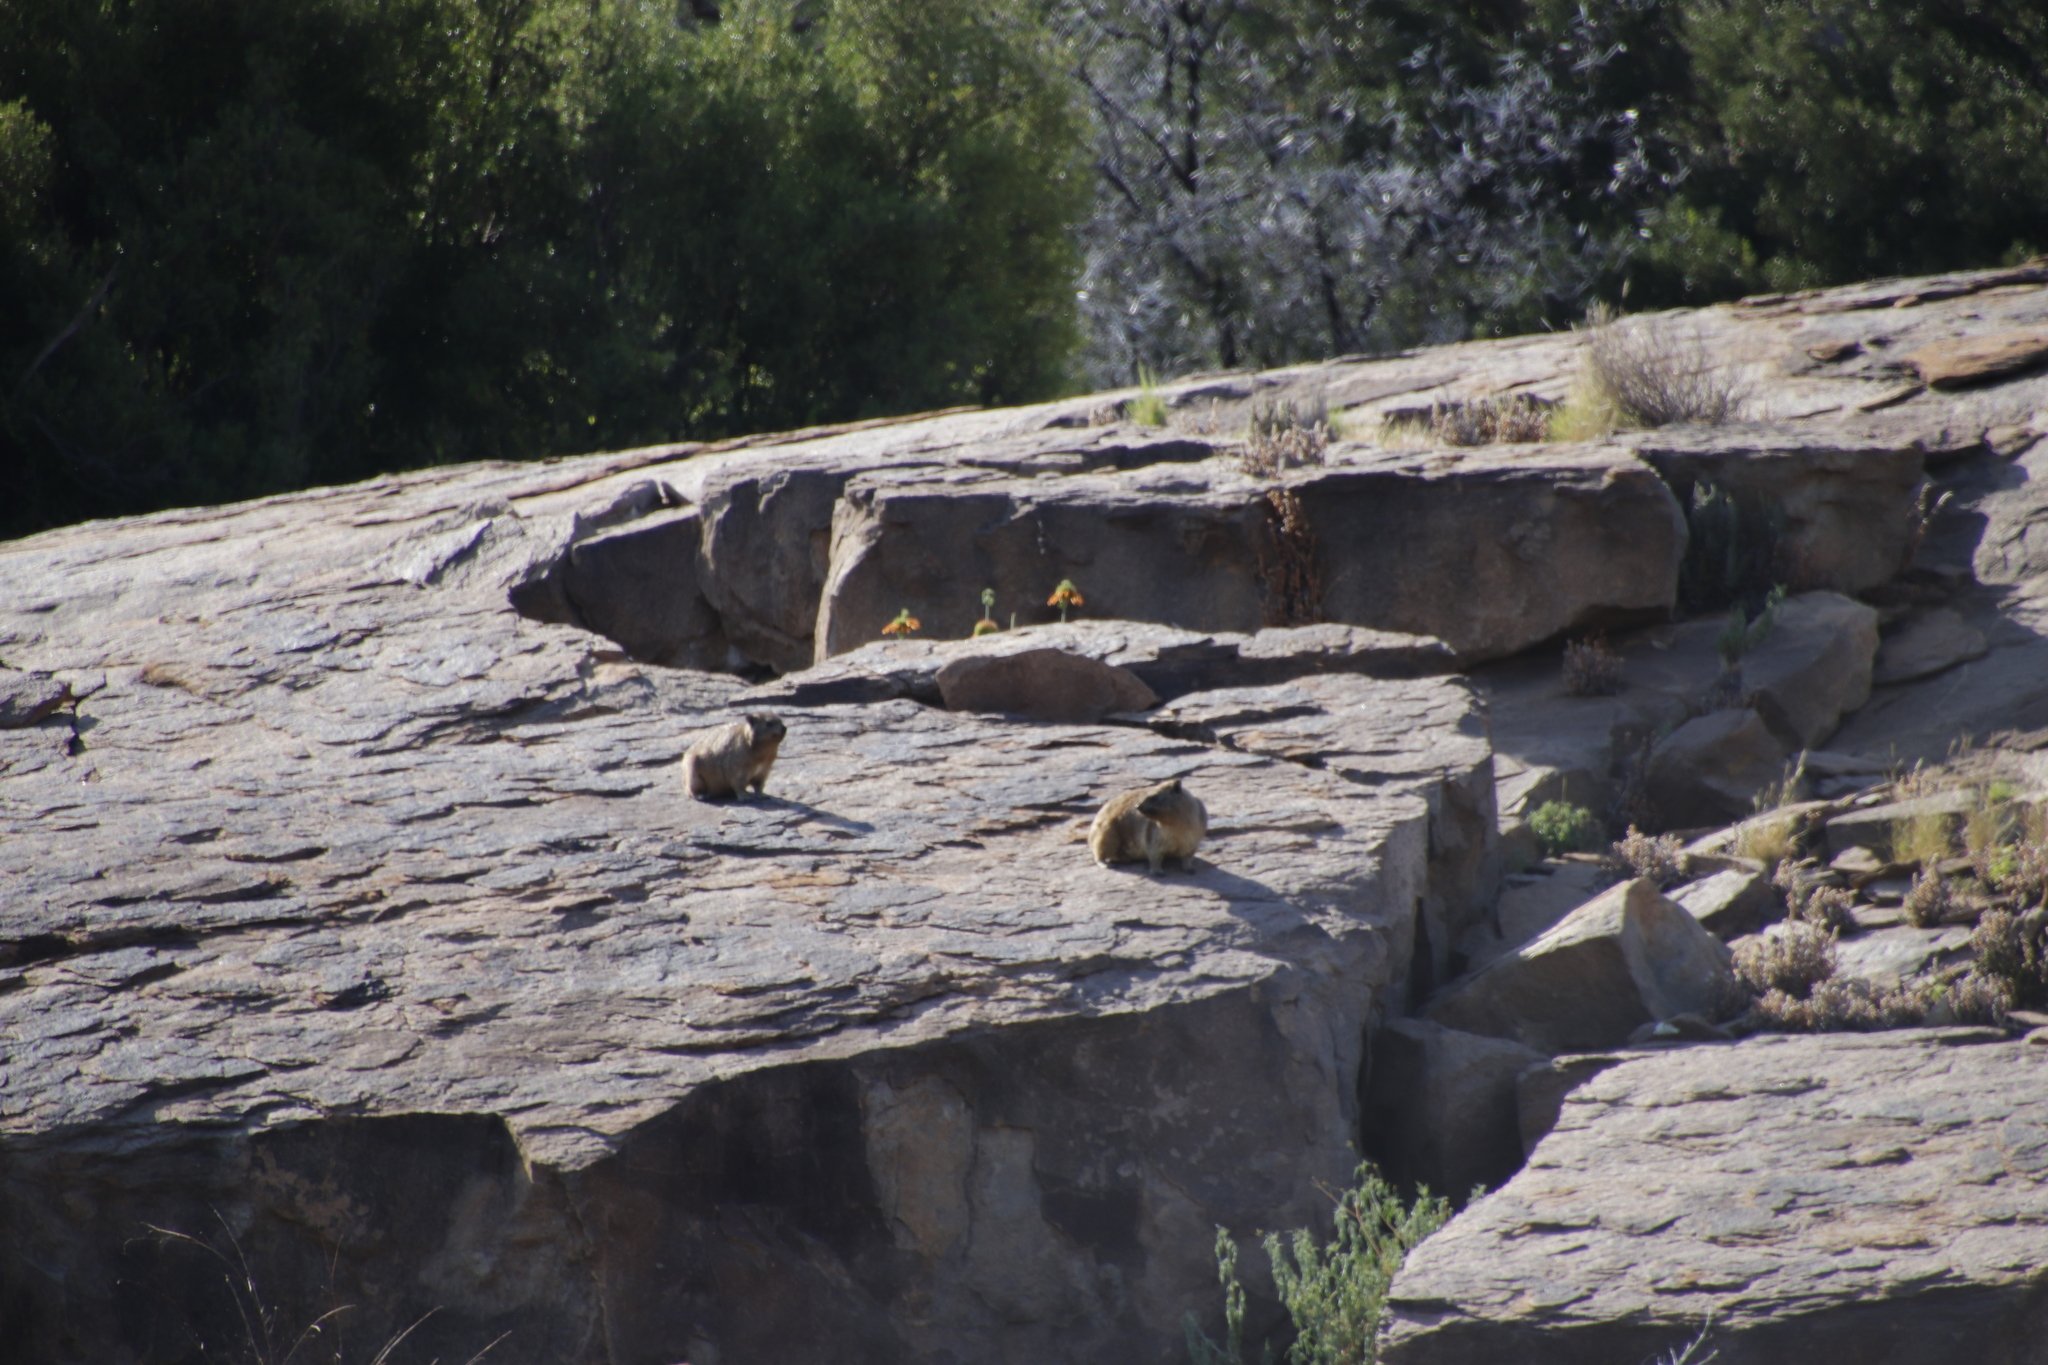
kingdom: Animalia
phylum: Chordata
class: Mammalia
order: Hyracoidea
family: Procaviidae
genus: Procavia
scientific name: Procavia capensis
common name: Rock hyrax
